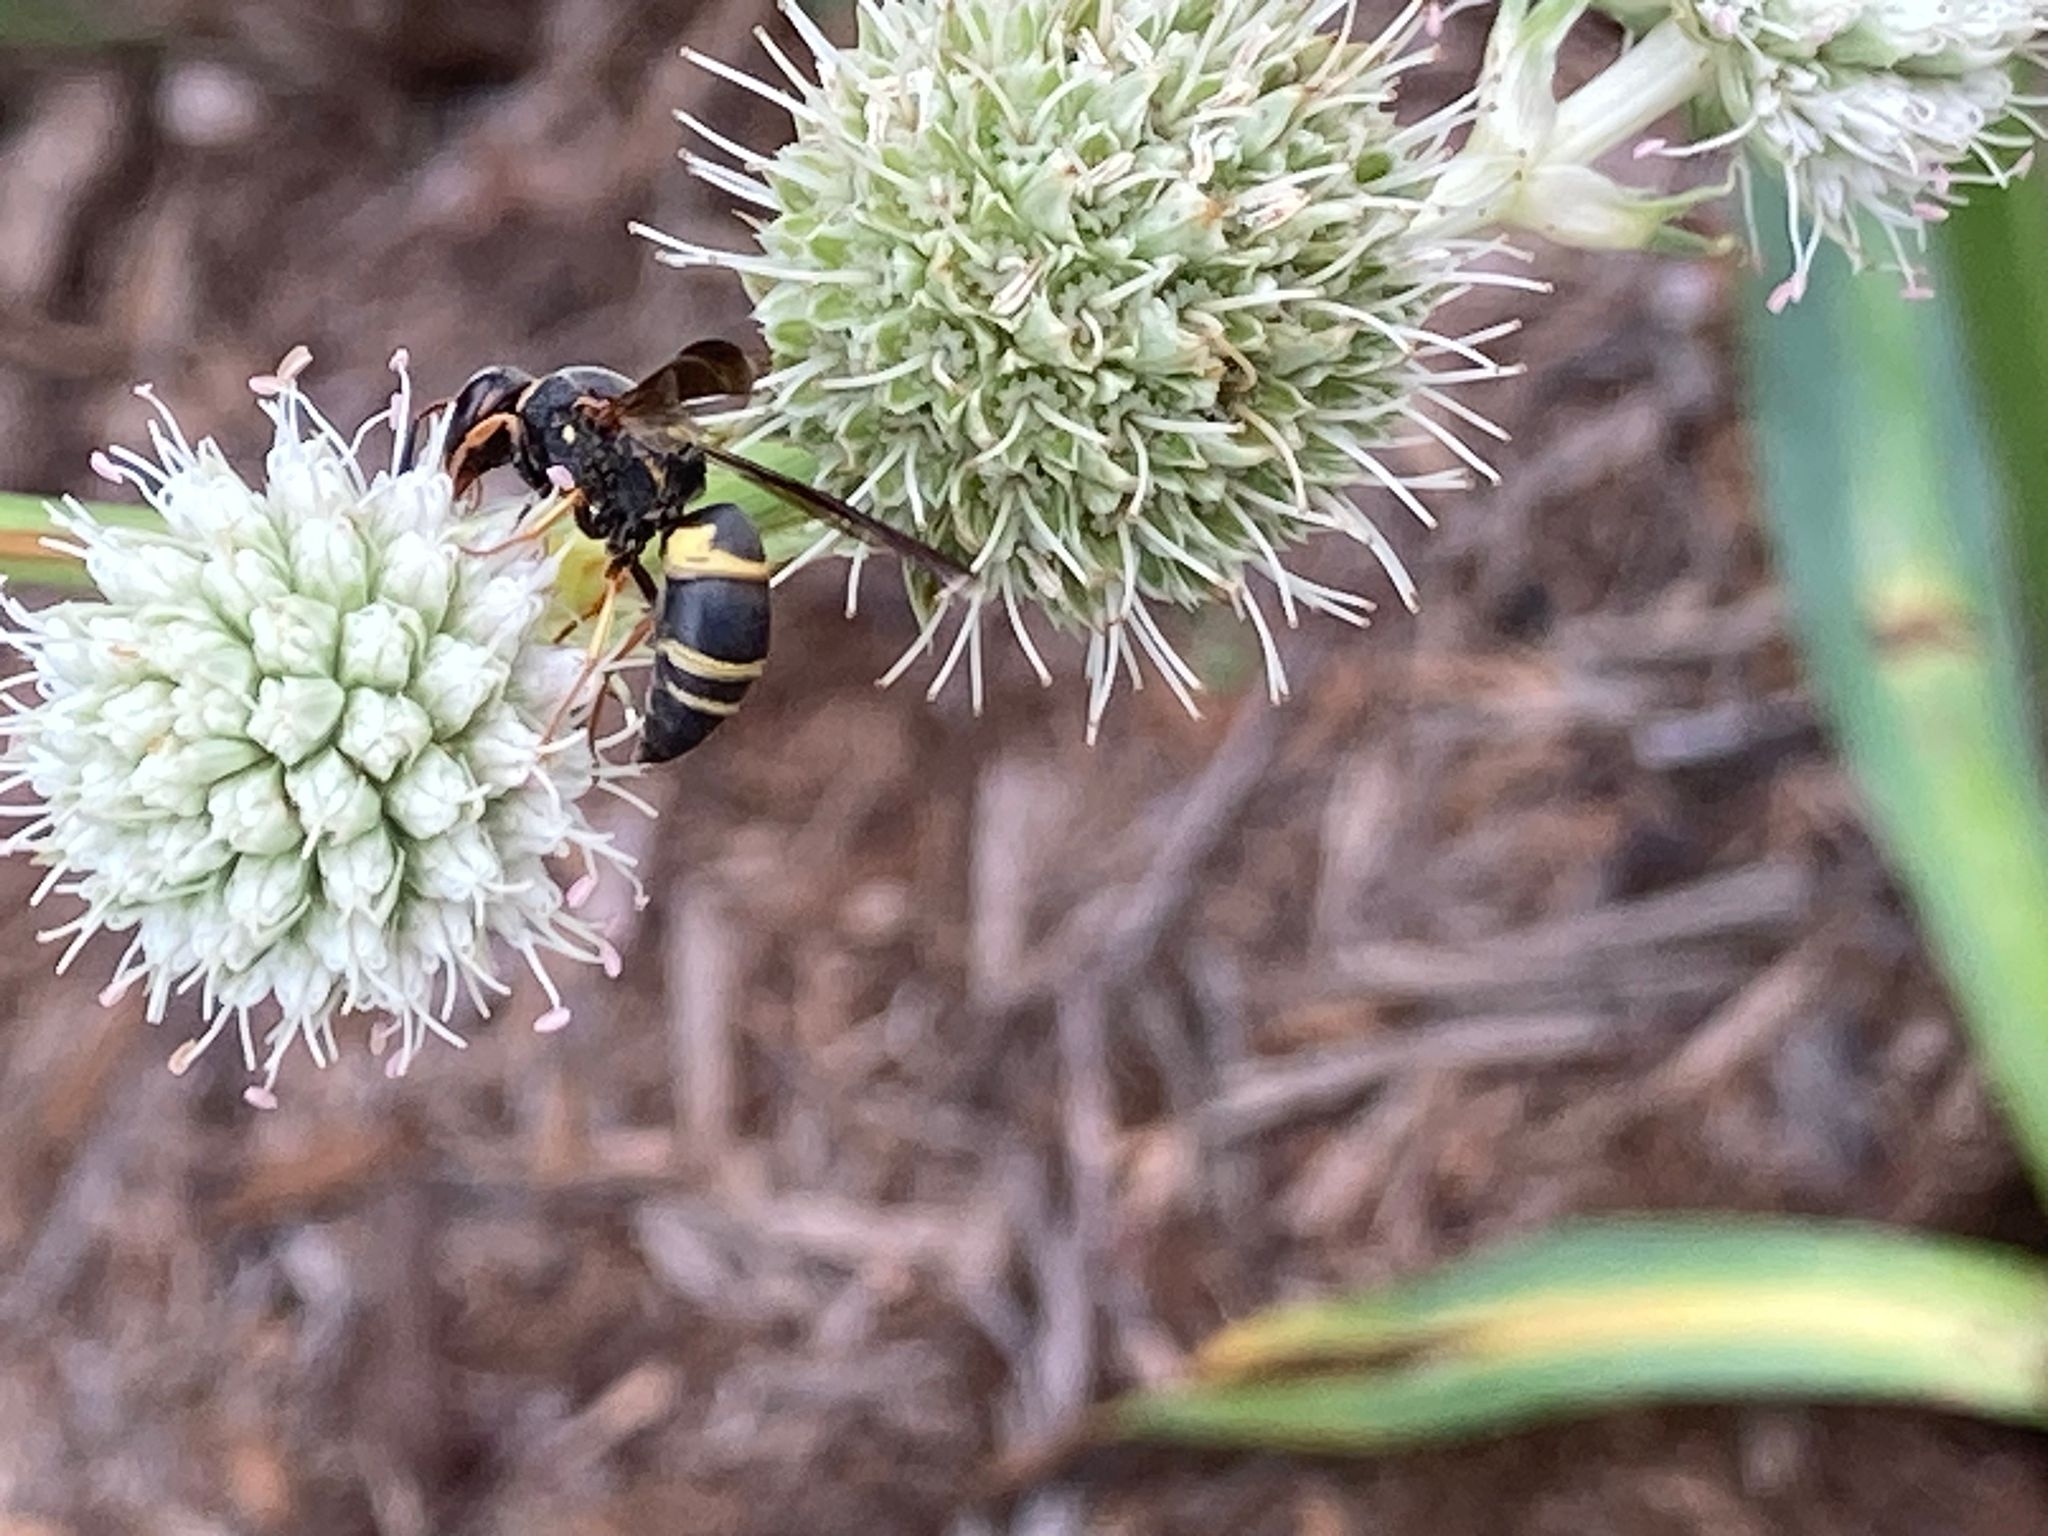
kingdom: Animalia
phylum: Arthropoda
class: Insecta
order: Hymenoptera
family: Eumenidae
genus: Euodynerus
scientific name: Euodynerus hidalgo
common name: Wasp
